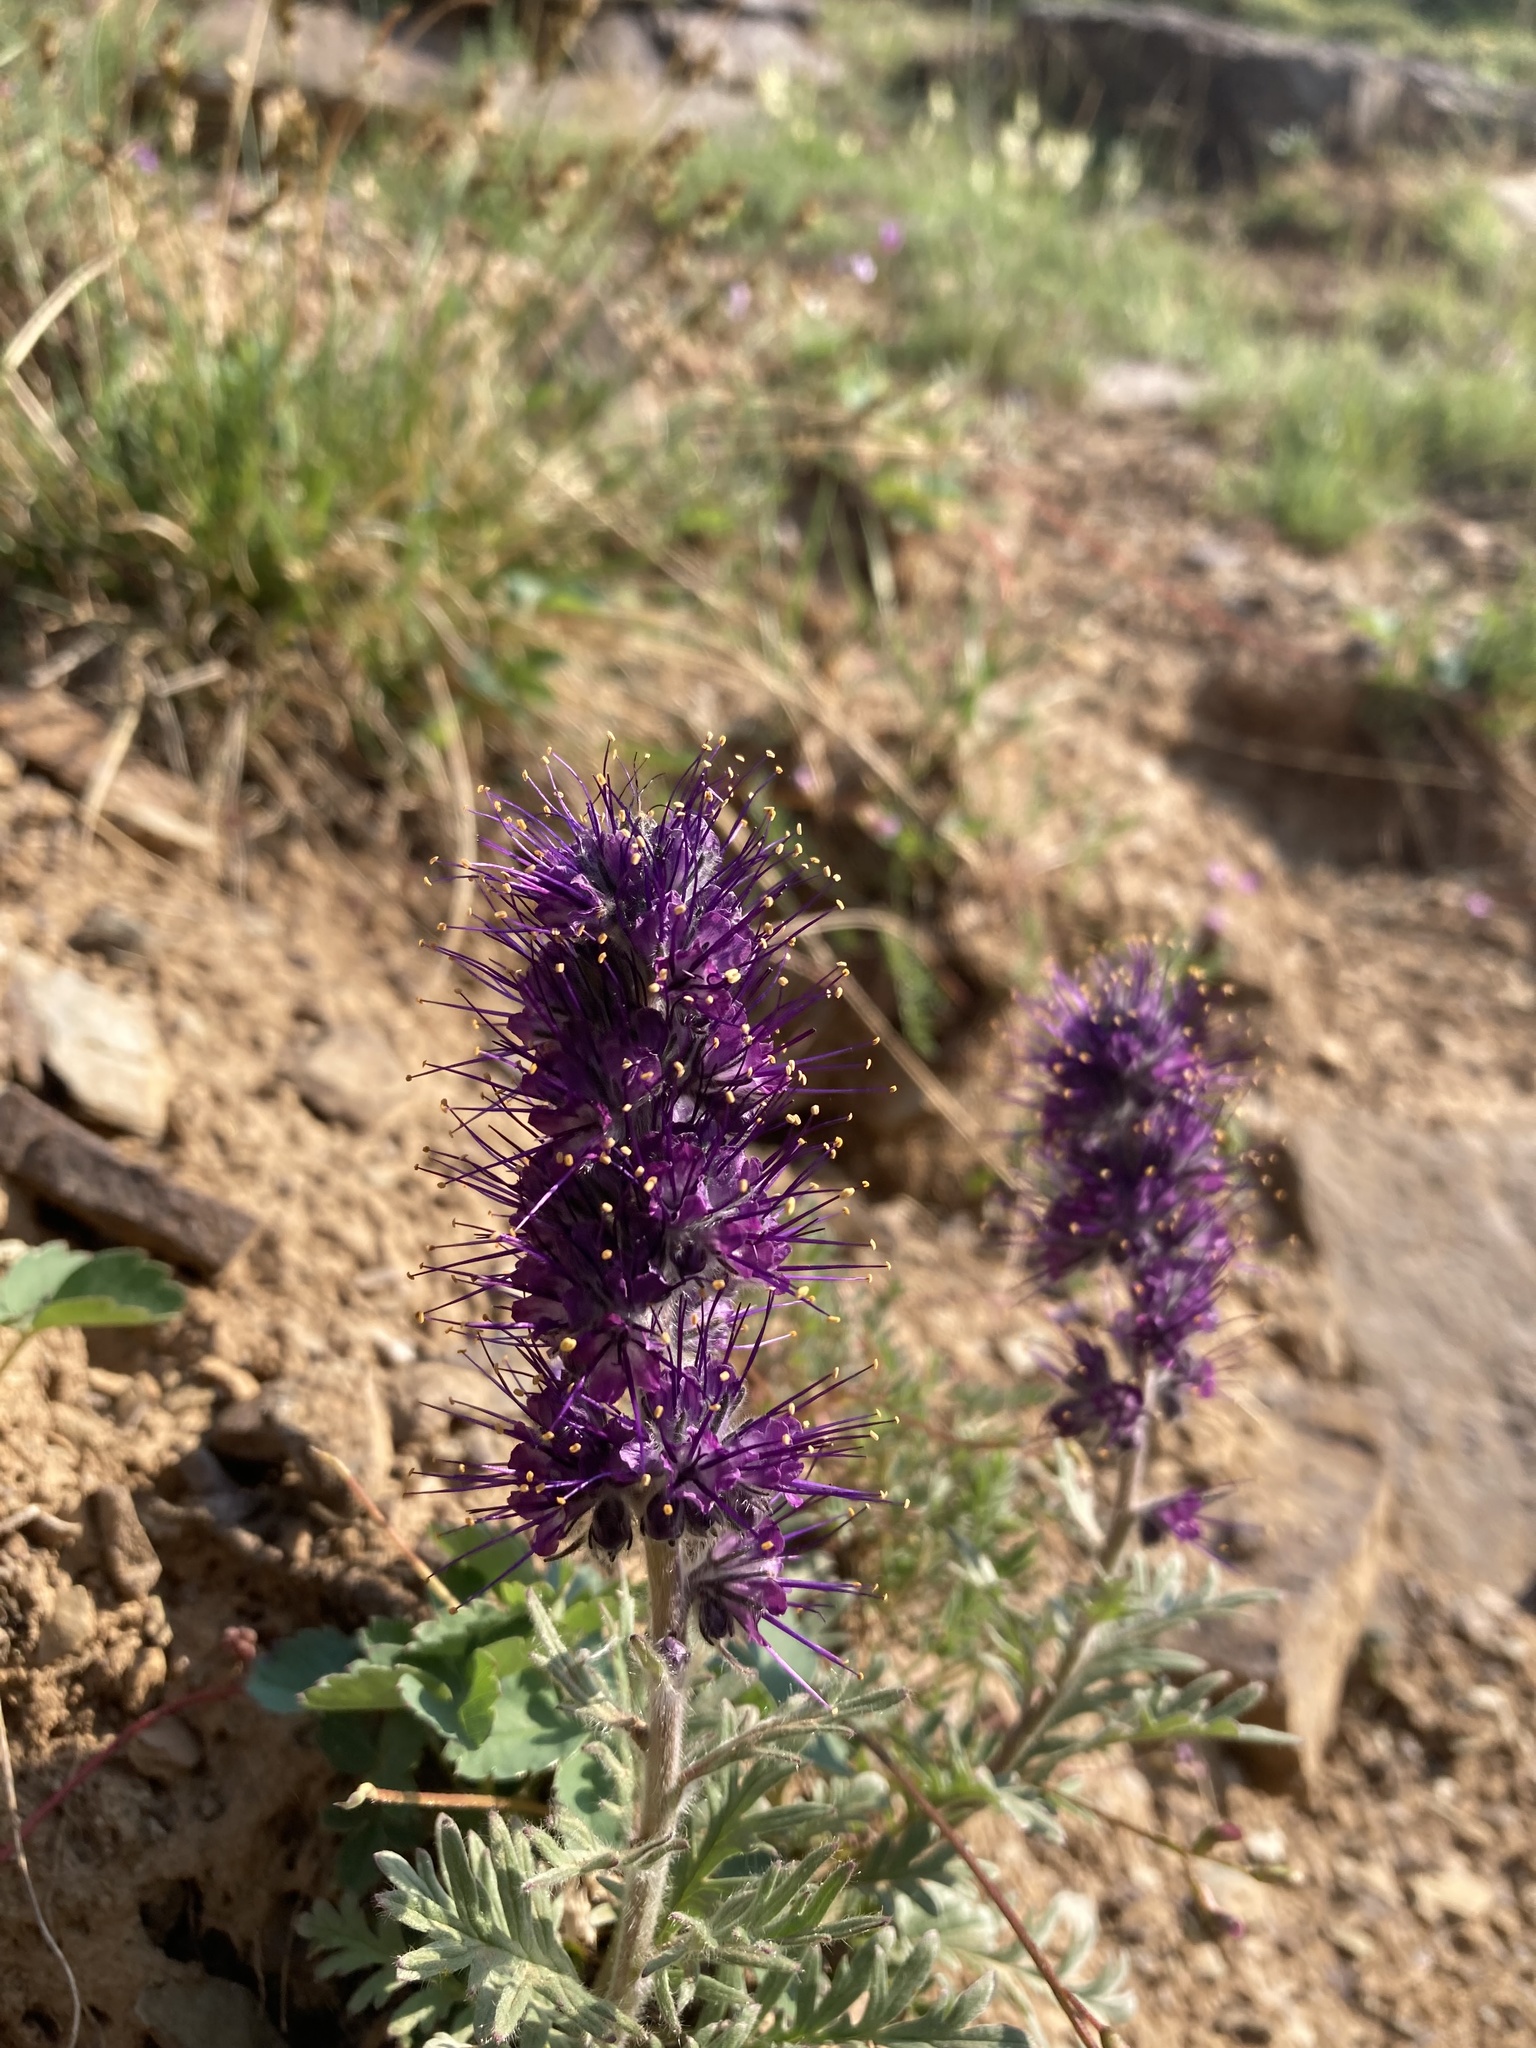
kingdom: Plantae
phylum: Tracheophyta
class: Magnoliopsida
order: Boraginales
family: Hydrophyllaceae
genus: Phacelia
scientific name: Phacelia sericea
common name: Silky phacelia
